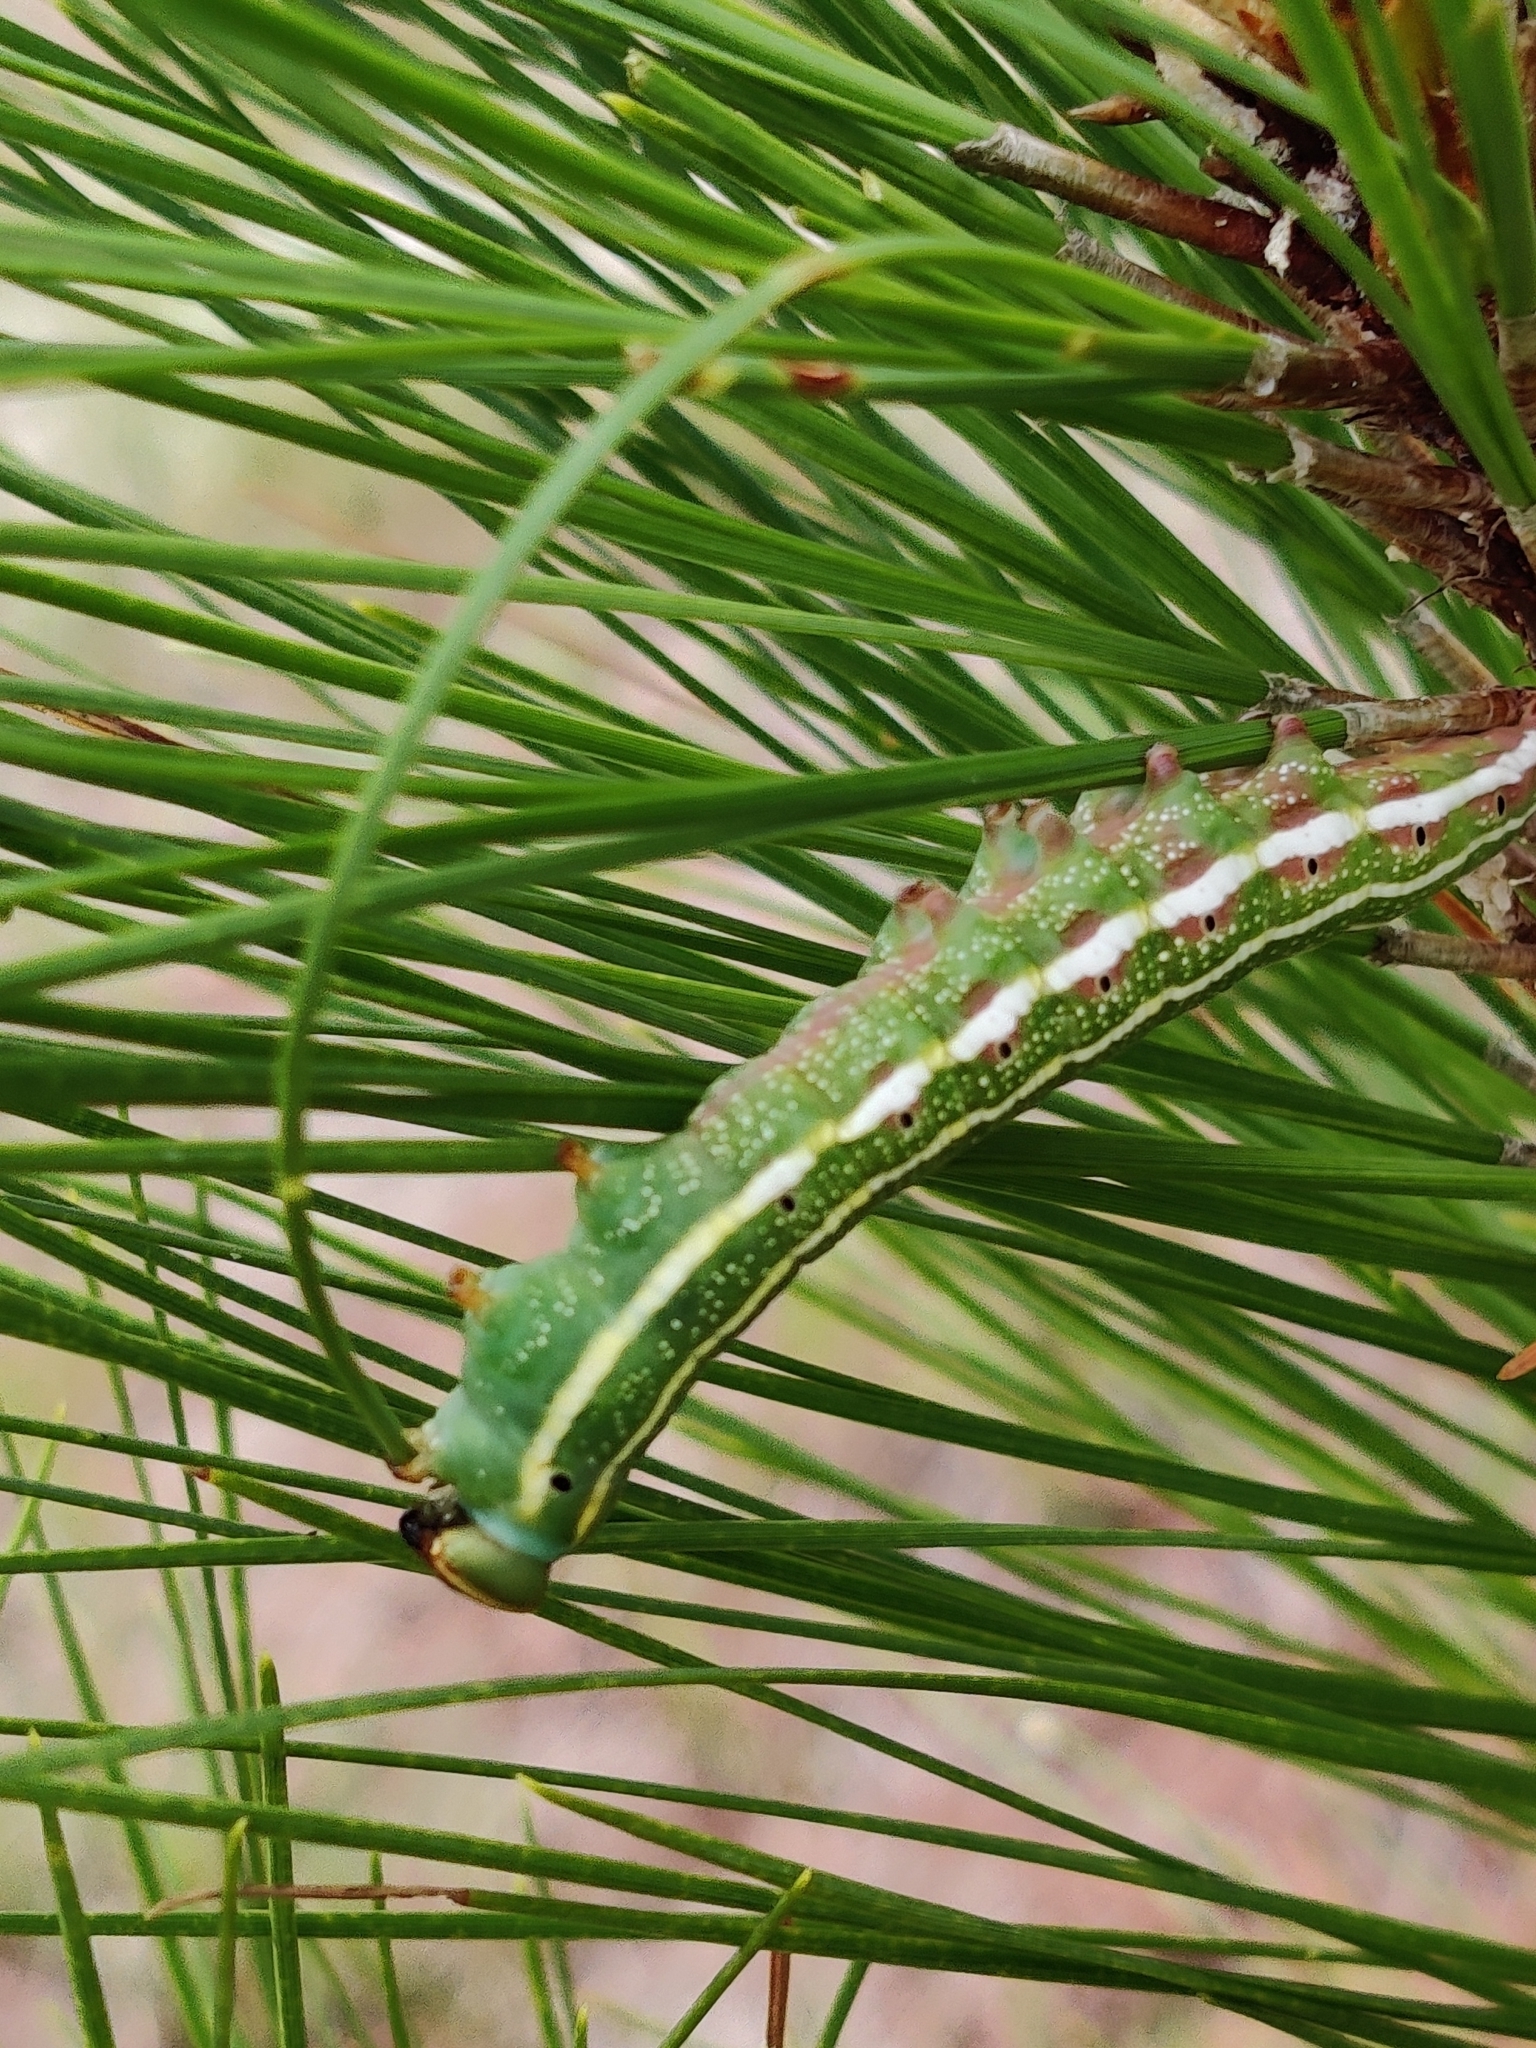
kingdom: Animalia
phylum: Arthropoda
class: Insecta
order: Lepidoptera
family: Sphingidae
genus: Lapara
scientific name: Lapara coniferarum
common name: Southern pine sphinx
